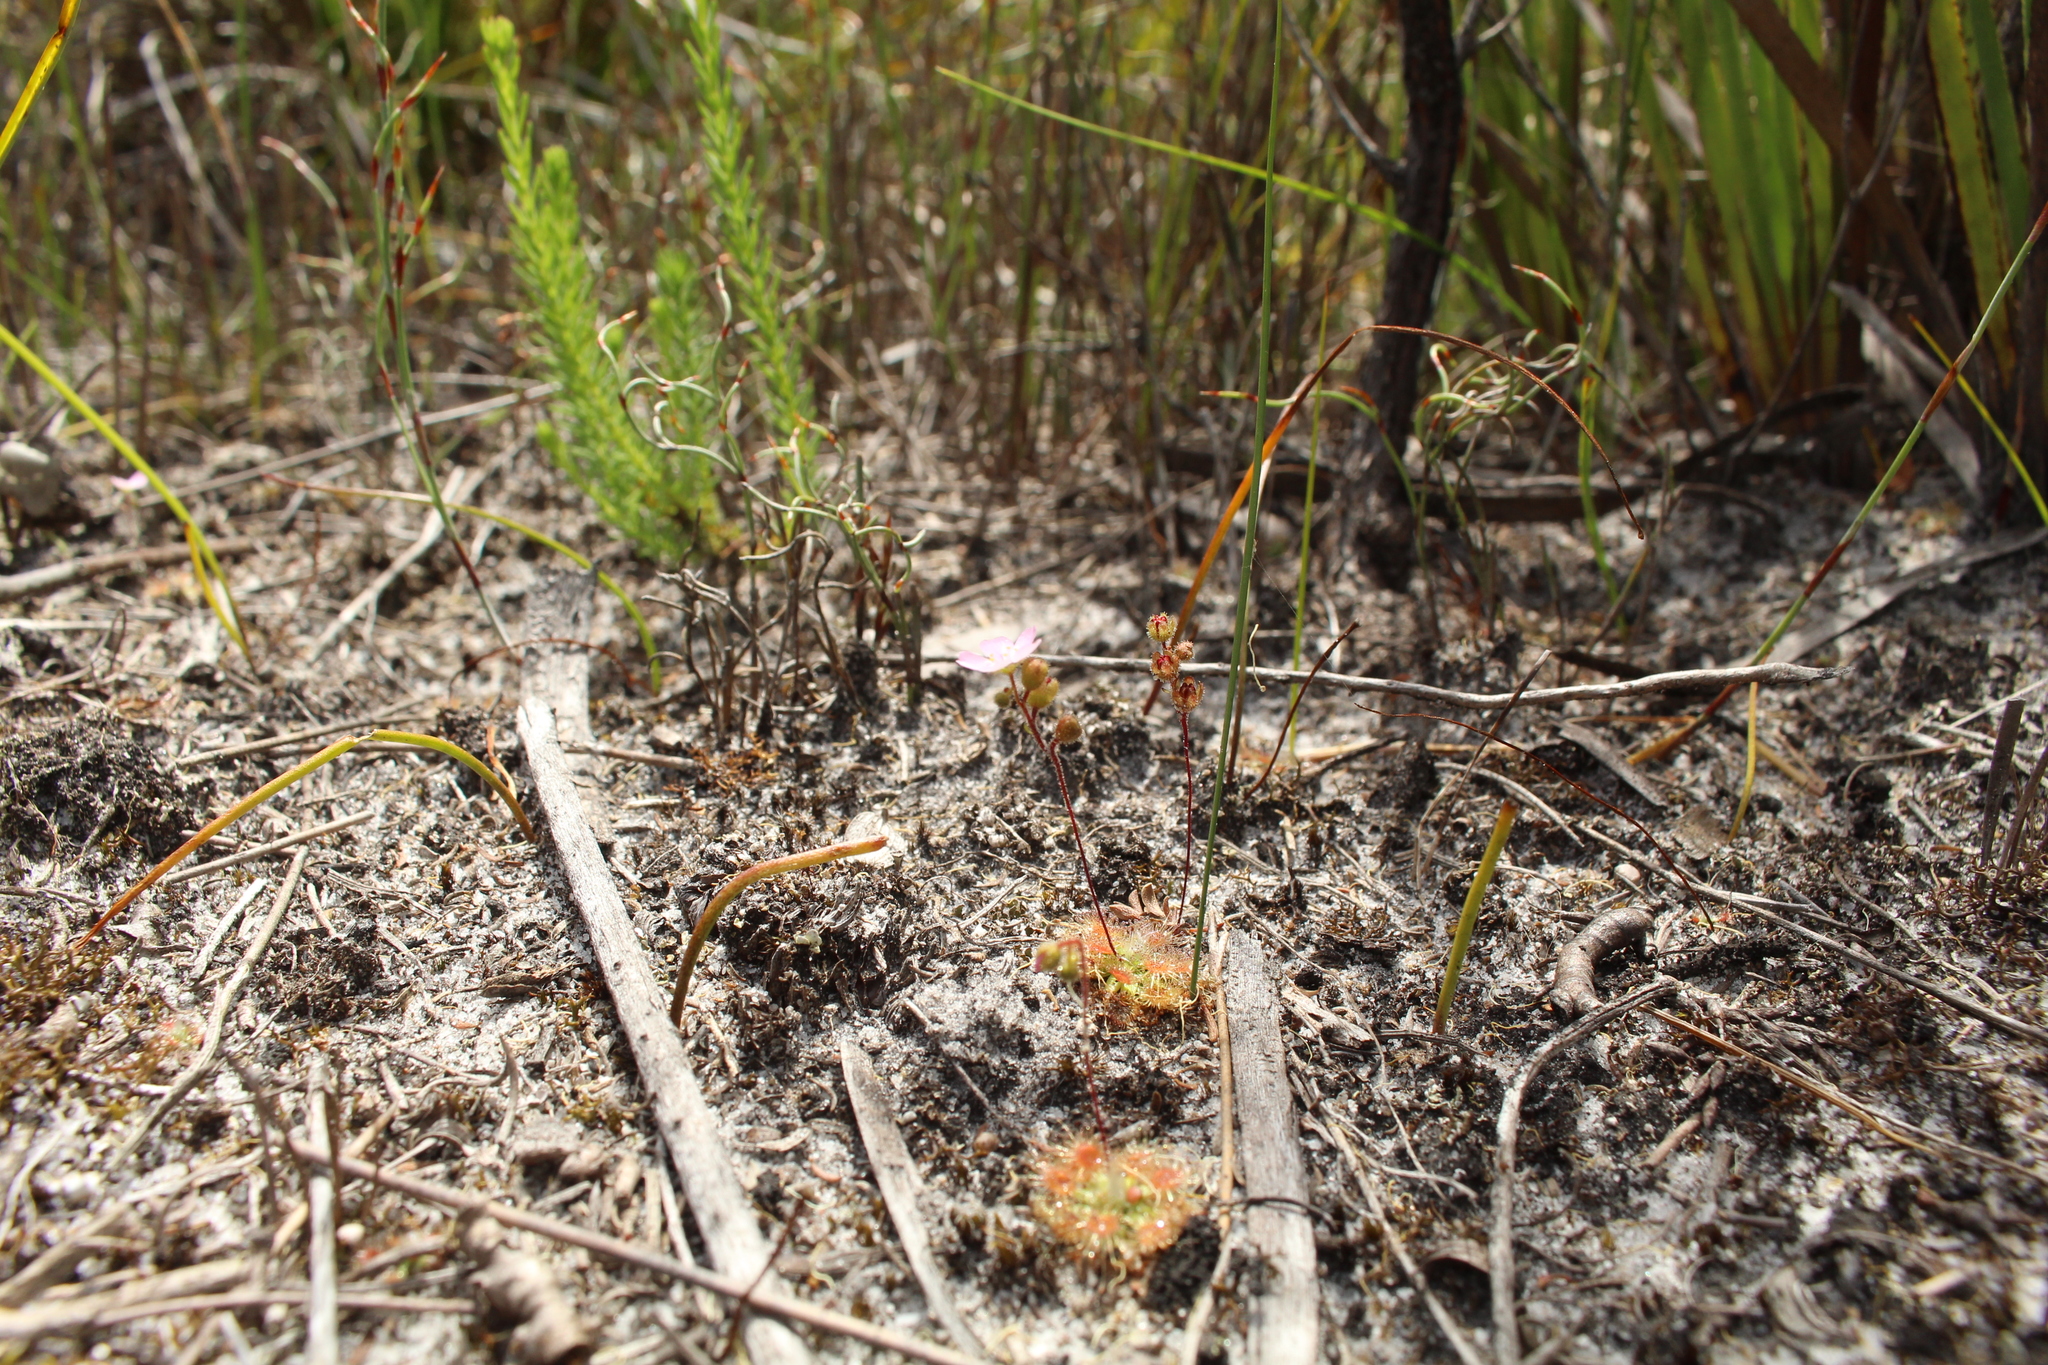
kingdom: Plantae
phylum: Tracheophyta
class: Magnoliopsida
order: Caryophyllales
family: Droseraceae
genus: Drosera
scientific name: Drosera pulchella
